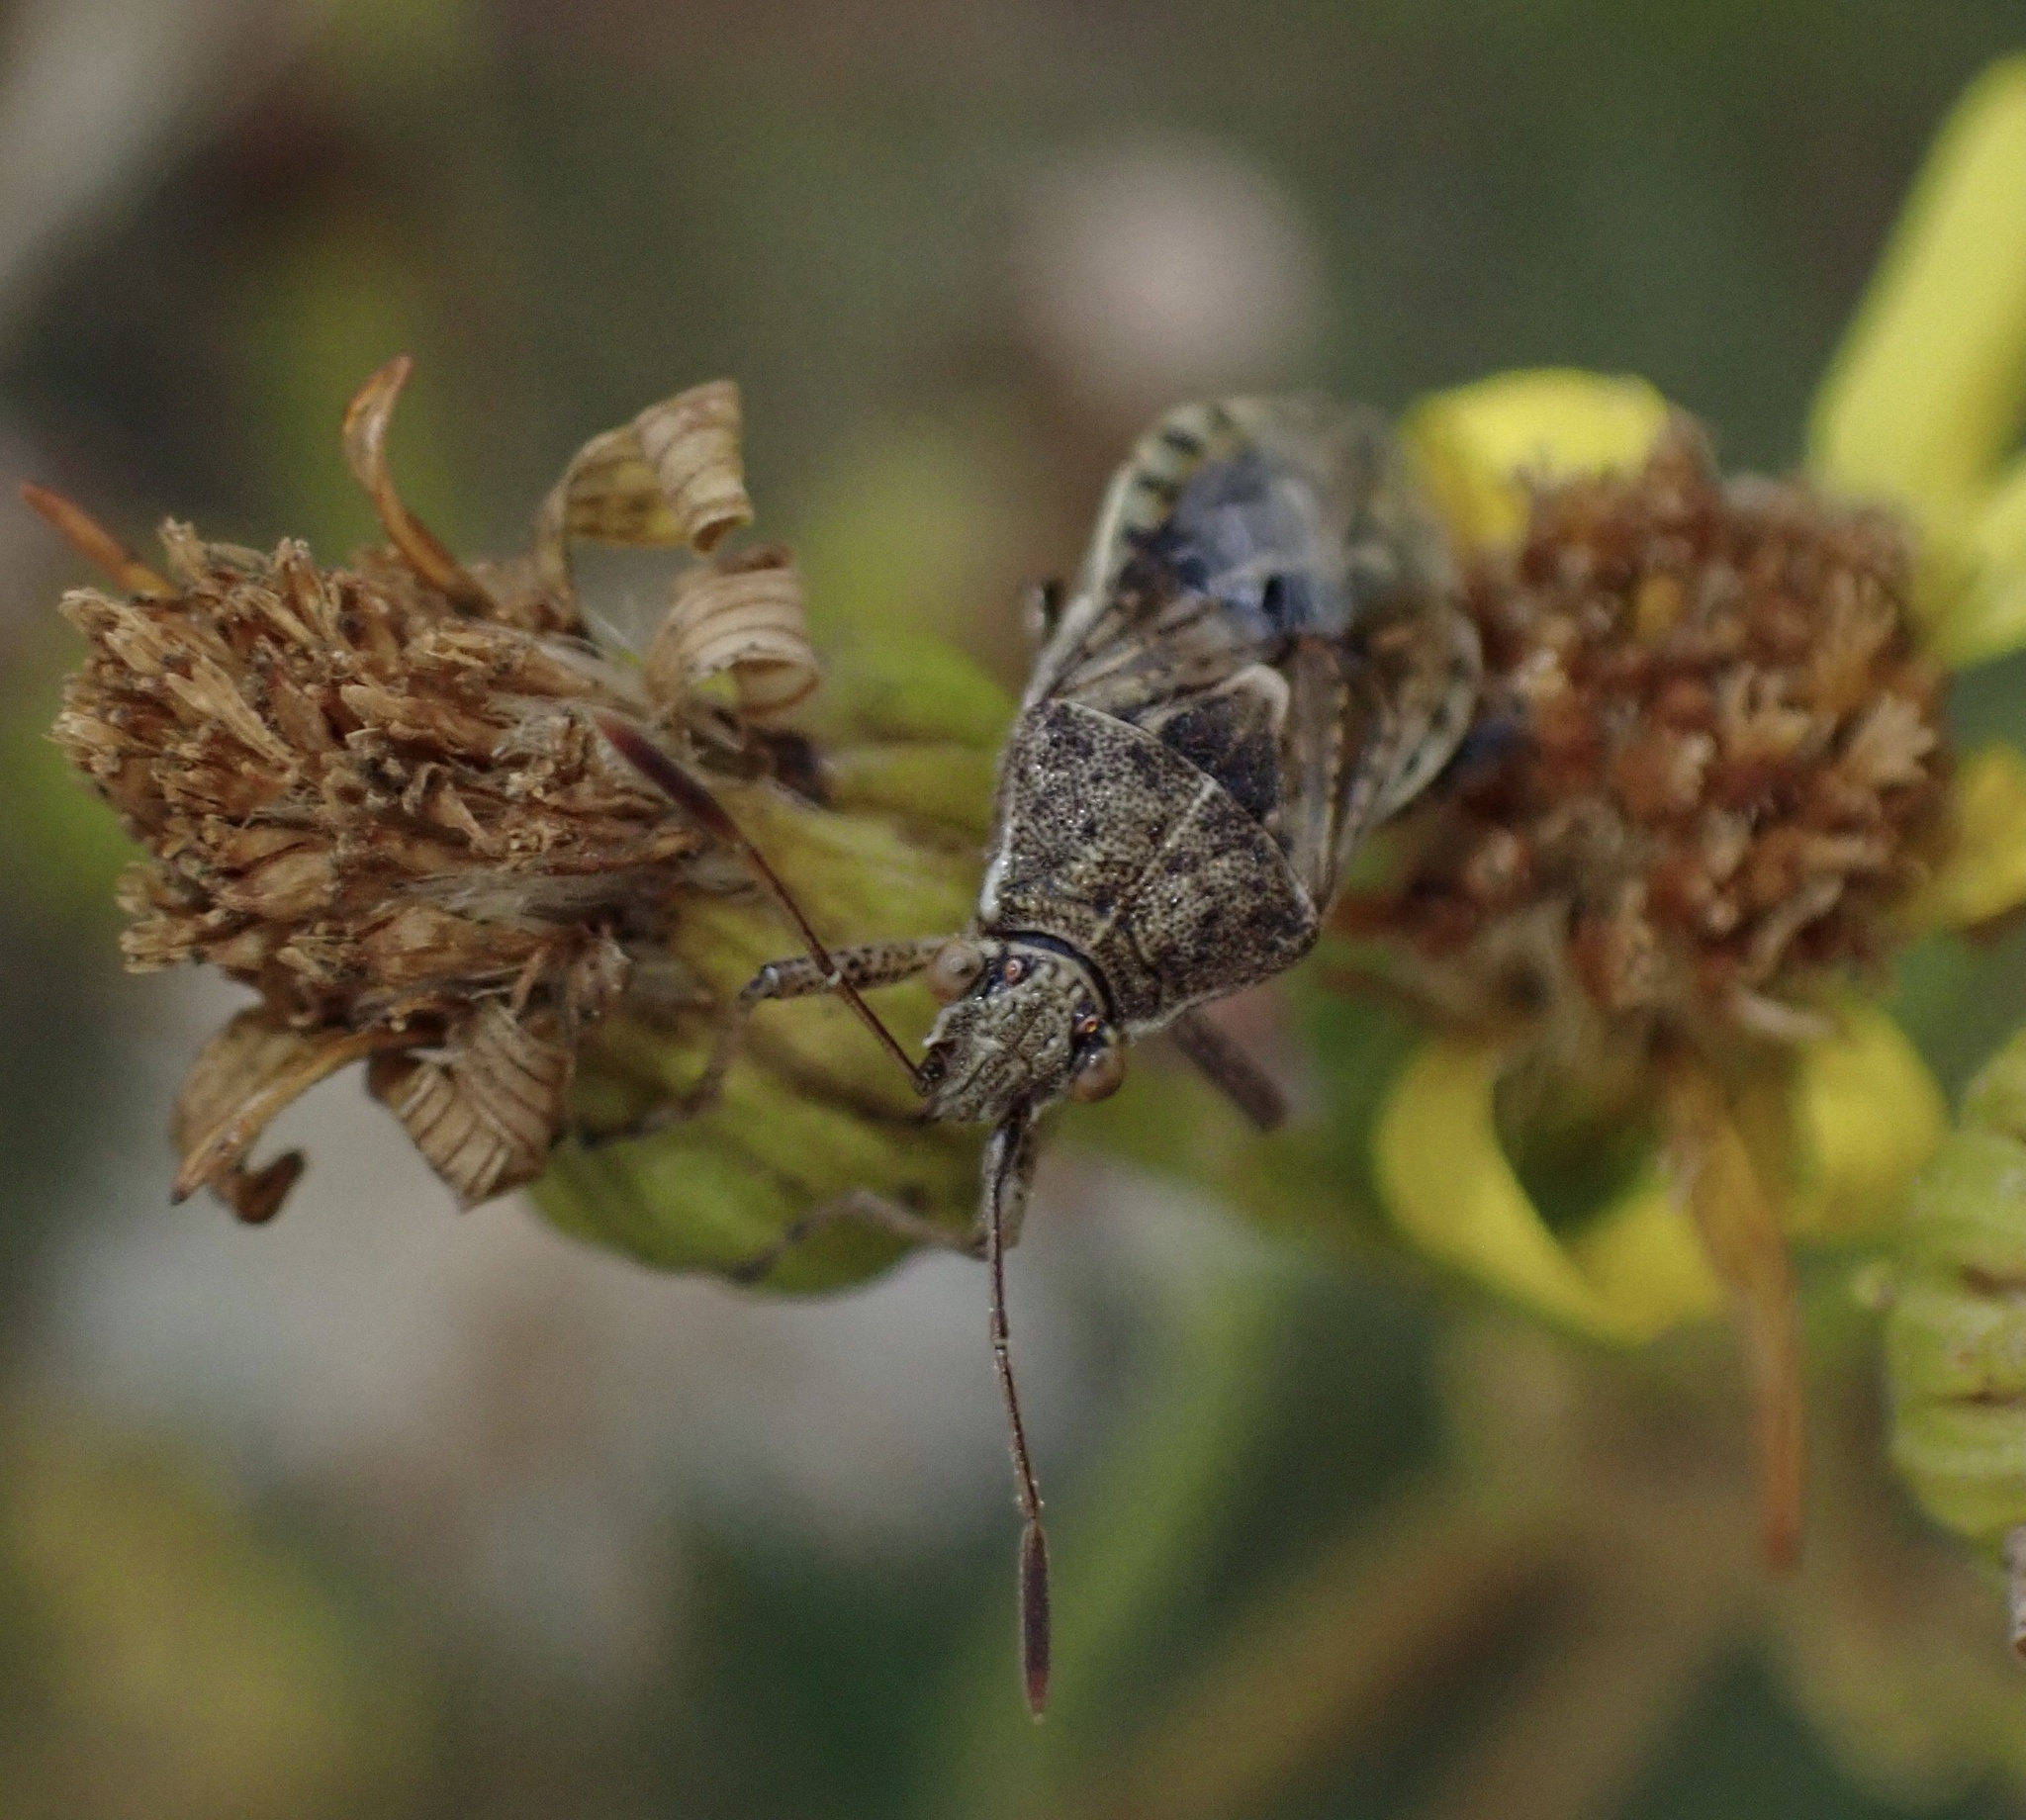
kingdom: Animalia
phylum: Arthropoda
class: Insecta
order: Hemiptera
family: Rhopalidae
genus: Stictopleurus
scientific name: Stictopleurus punctatonervosus
